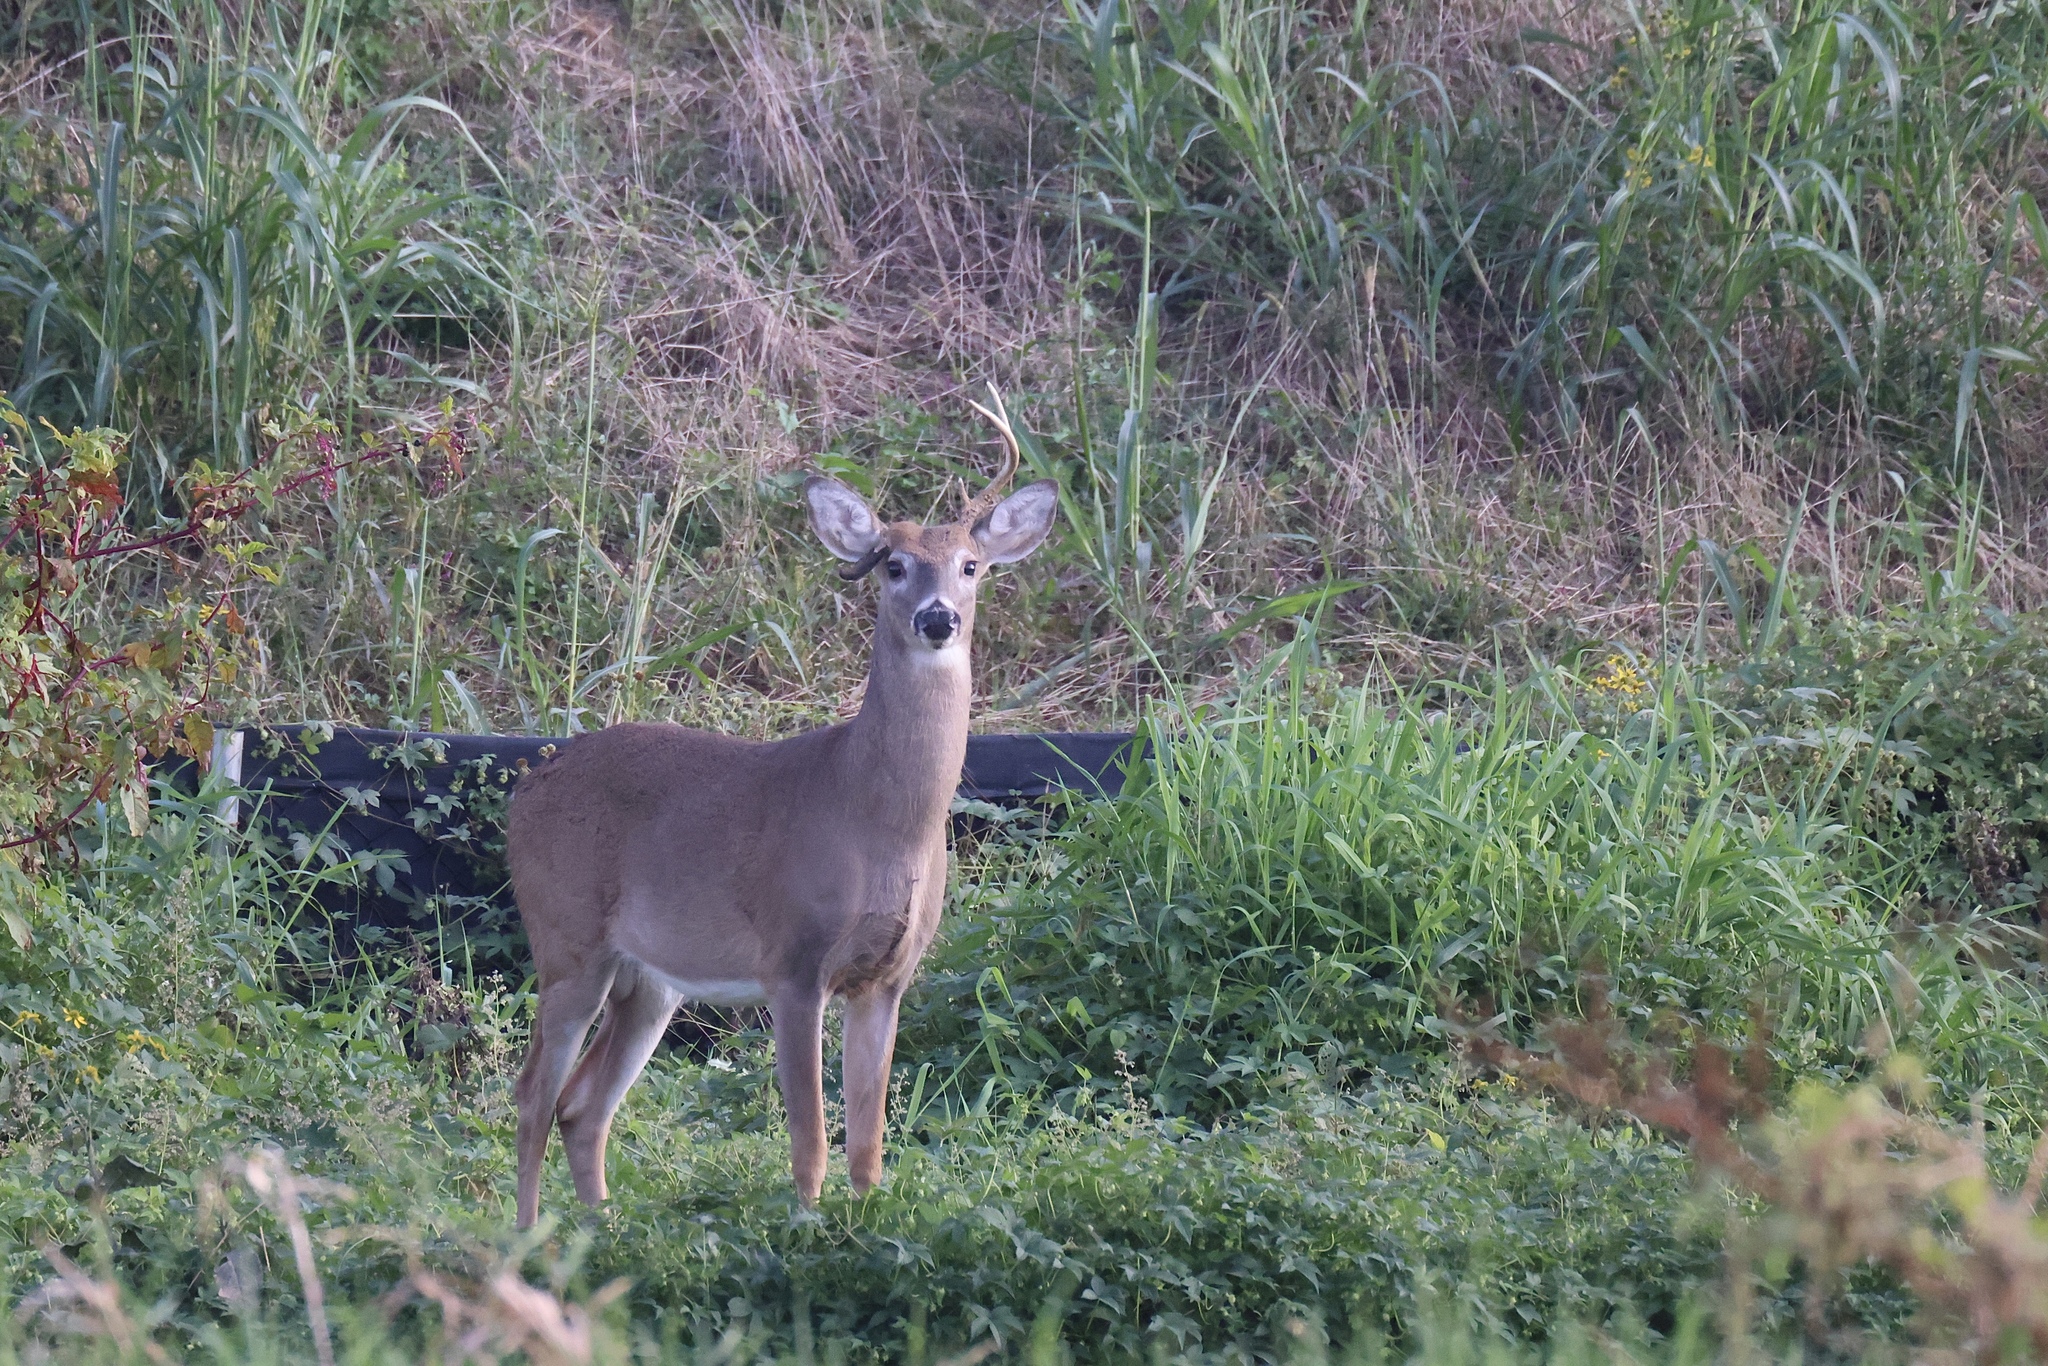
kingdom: Animalia
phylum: Chordata
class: Mammalia
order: Artiodactyla
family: Cervidae
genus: Odocoileus
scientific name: Odocoileus virginianus
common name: White-tailed deer
